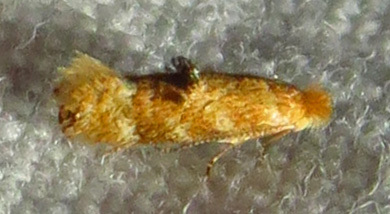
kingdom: Animalia
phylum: Arthropoda
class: Insecta
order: Lepidoptera
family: Bucculatricidae
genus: Bucculatrix
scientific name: Bucculatrix coronatella
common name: Crowned bucculatrix moth
